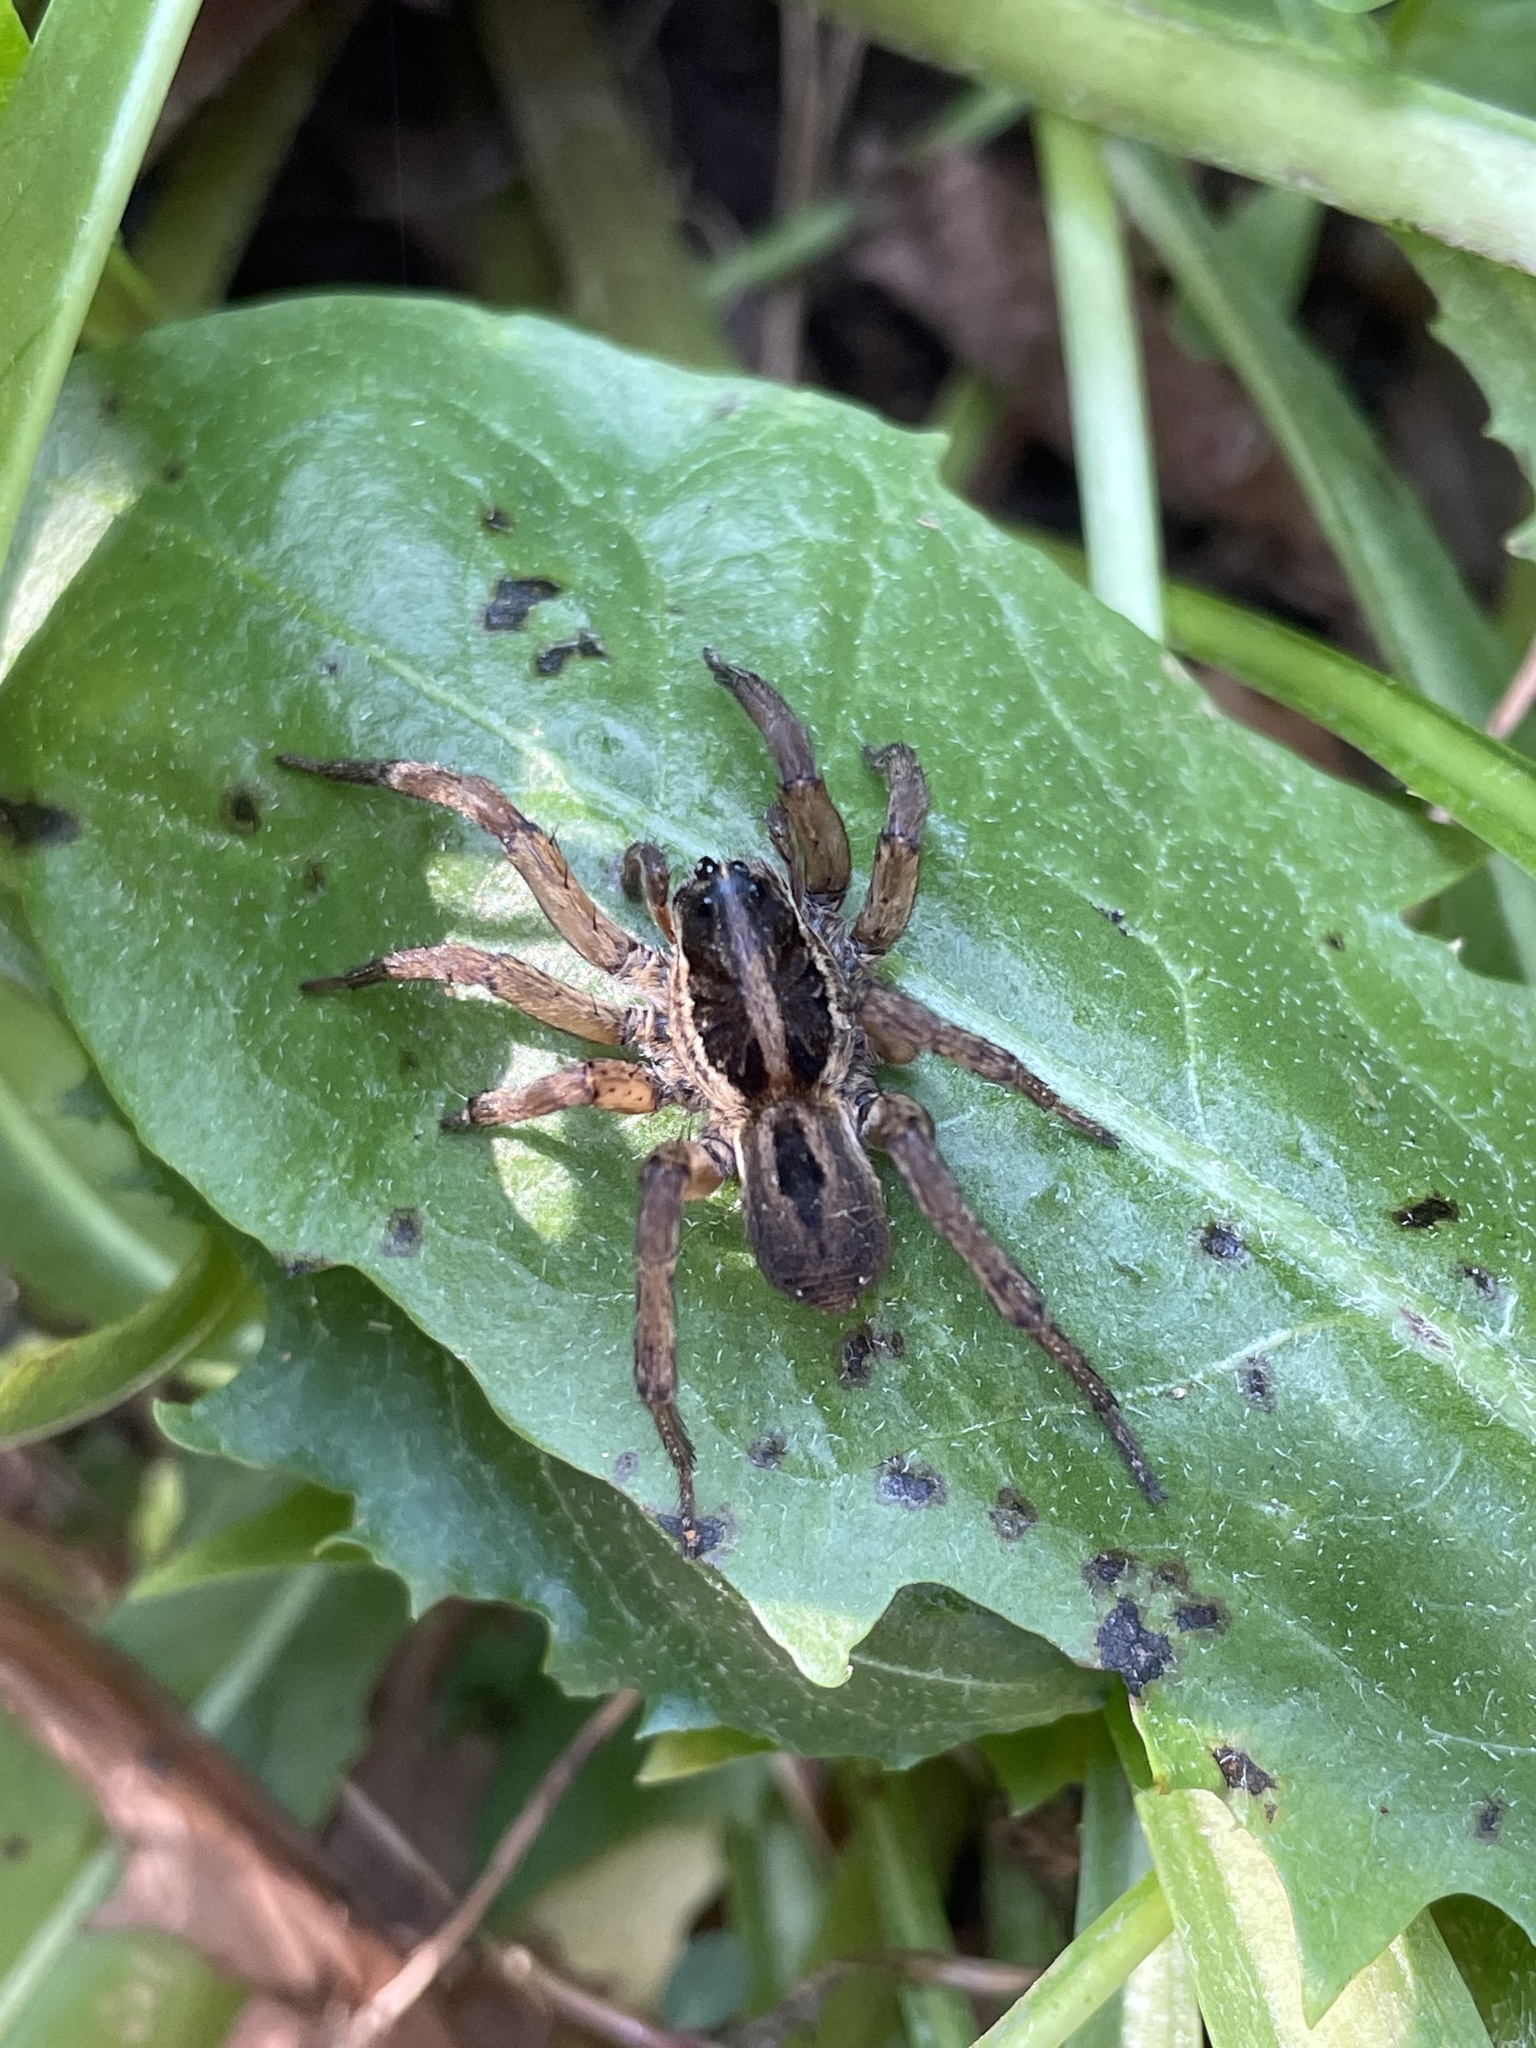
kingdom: Animalia
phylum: Arthropoda
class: Arachnida
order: Araneae
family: Lycosidae
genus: Tigrosa
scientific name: Tigrosa annexa
